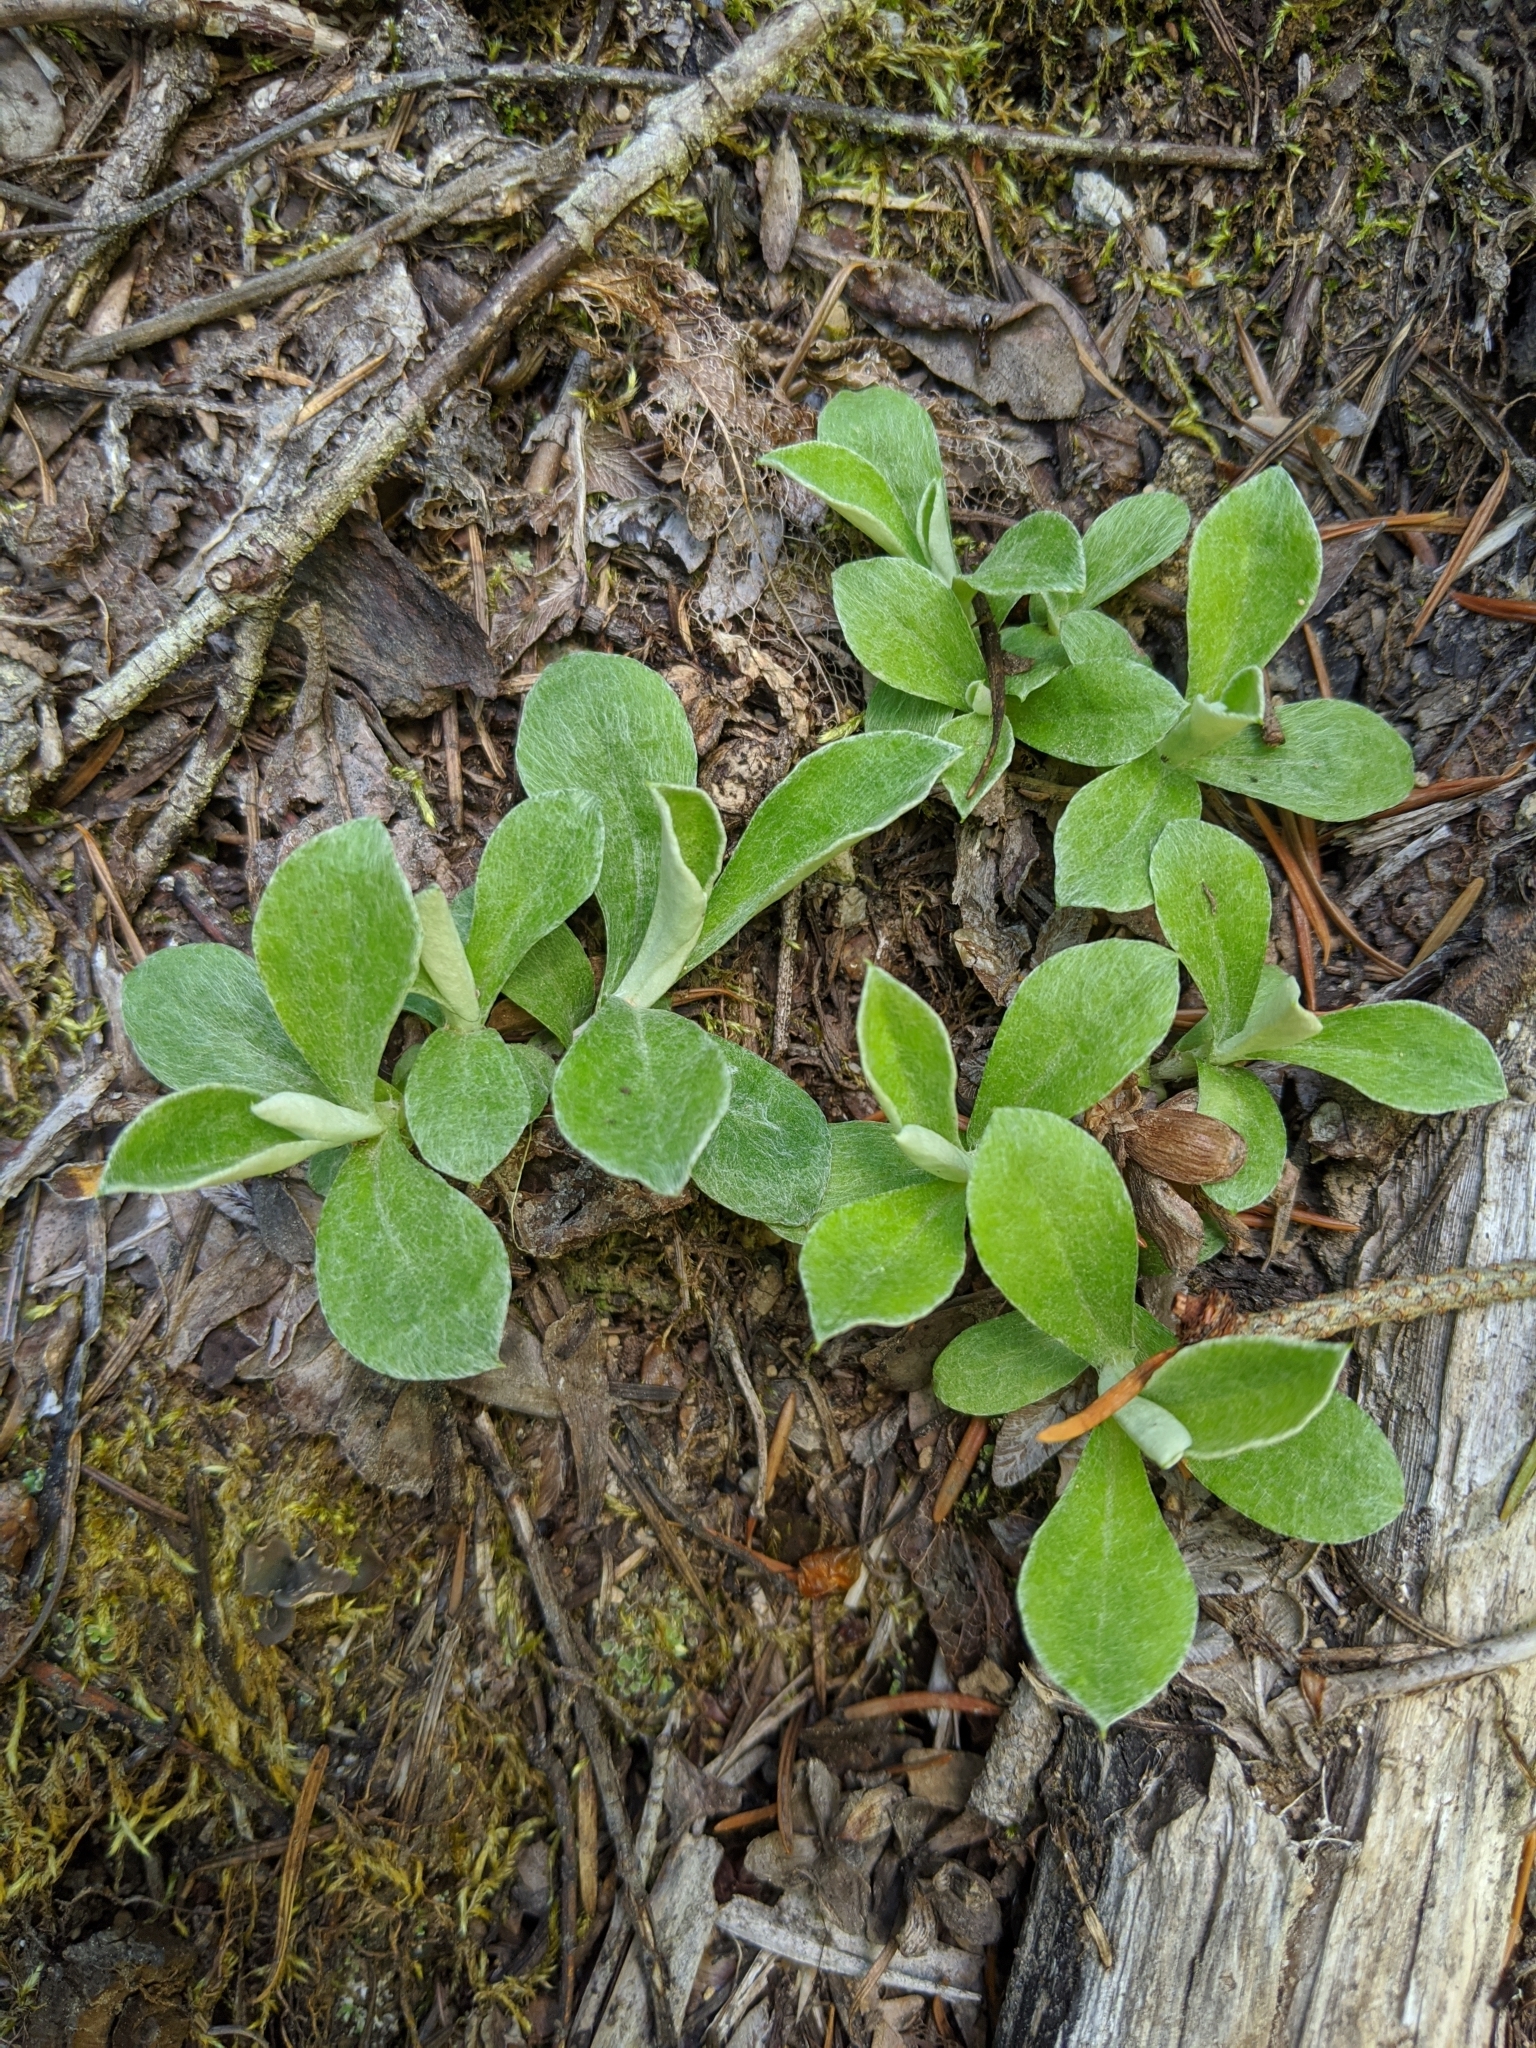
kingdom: Plantae
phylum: Tracheophyta
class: Magnoliopsida
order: Asterales
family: Asteraceae
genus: Antennaria
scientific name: Antennaria howellii
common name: Howell's pussytoes
